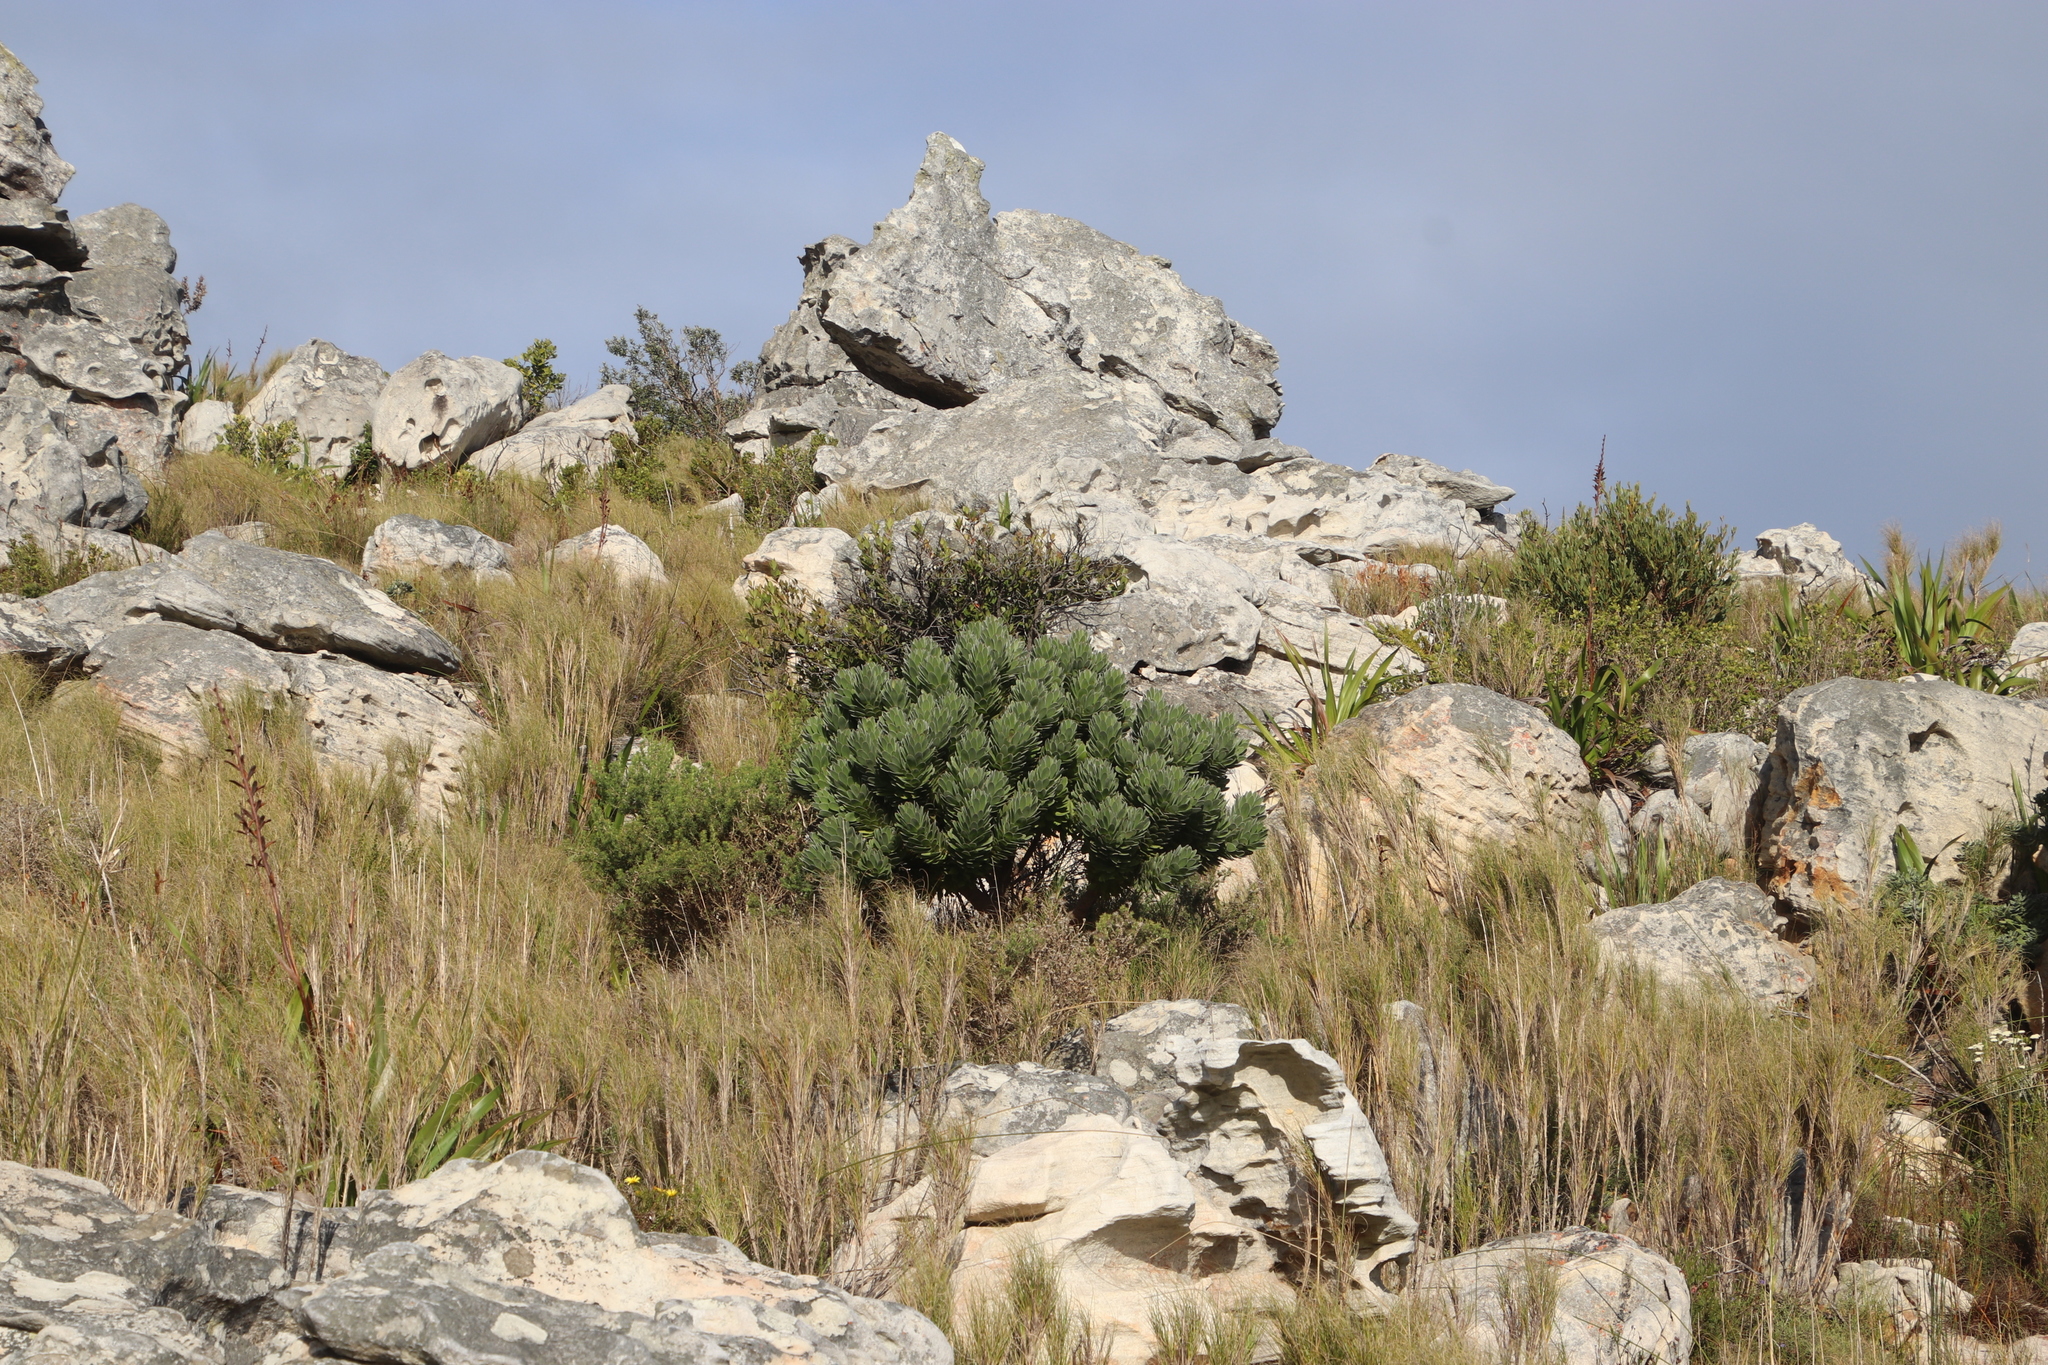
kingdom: Plantae
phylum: Tracheophyta
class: Magnoliopsida
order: Proteales
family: Proteaceae
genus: Mimetes
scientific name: Mimetes fimbriifolius
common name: Fringed bottlebrush
